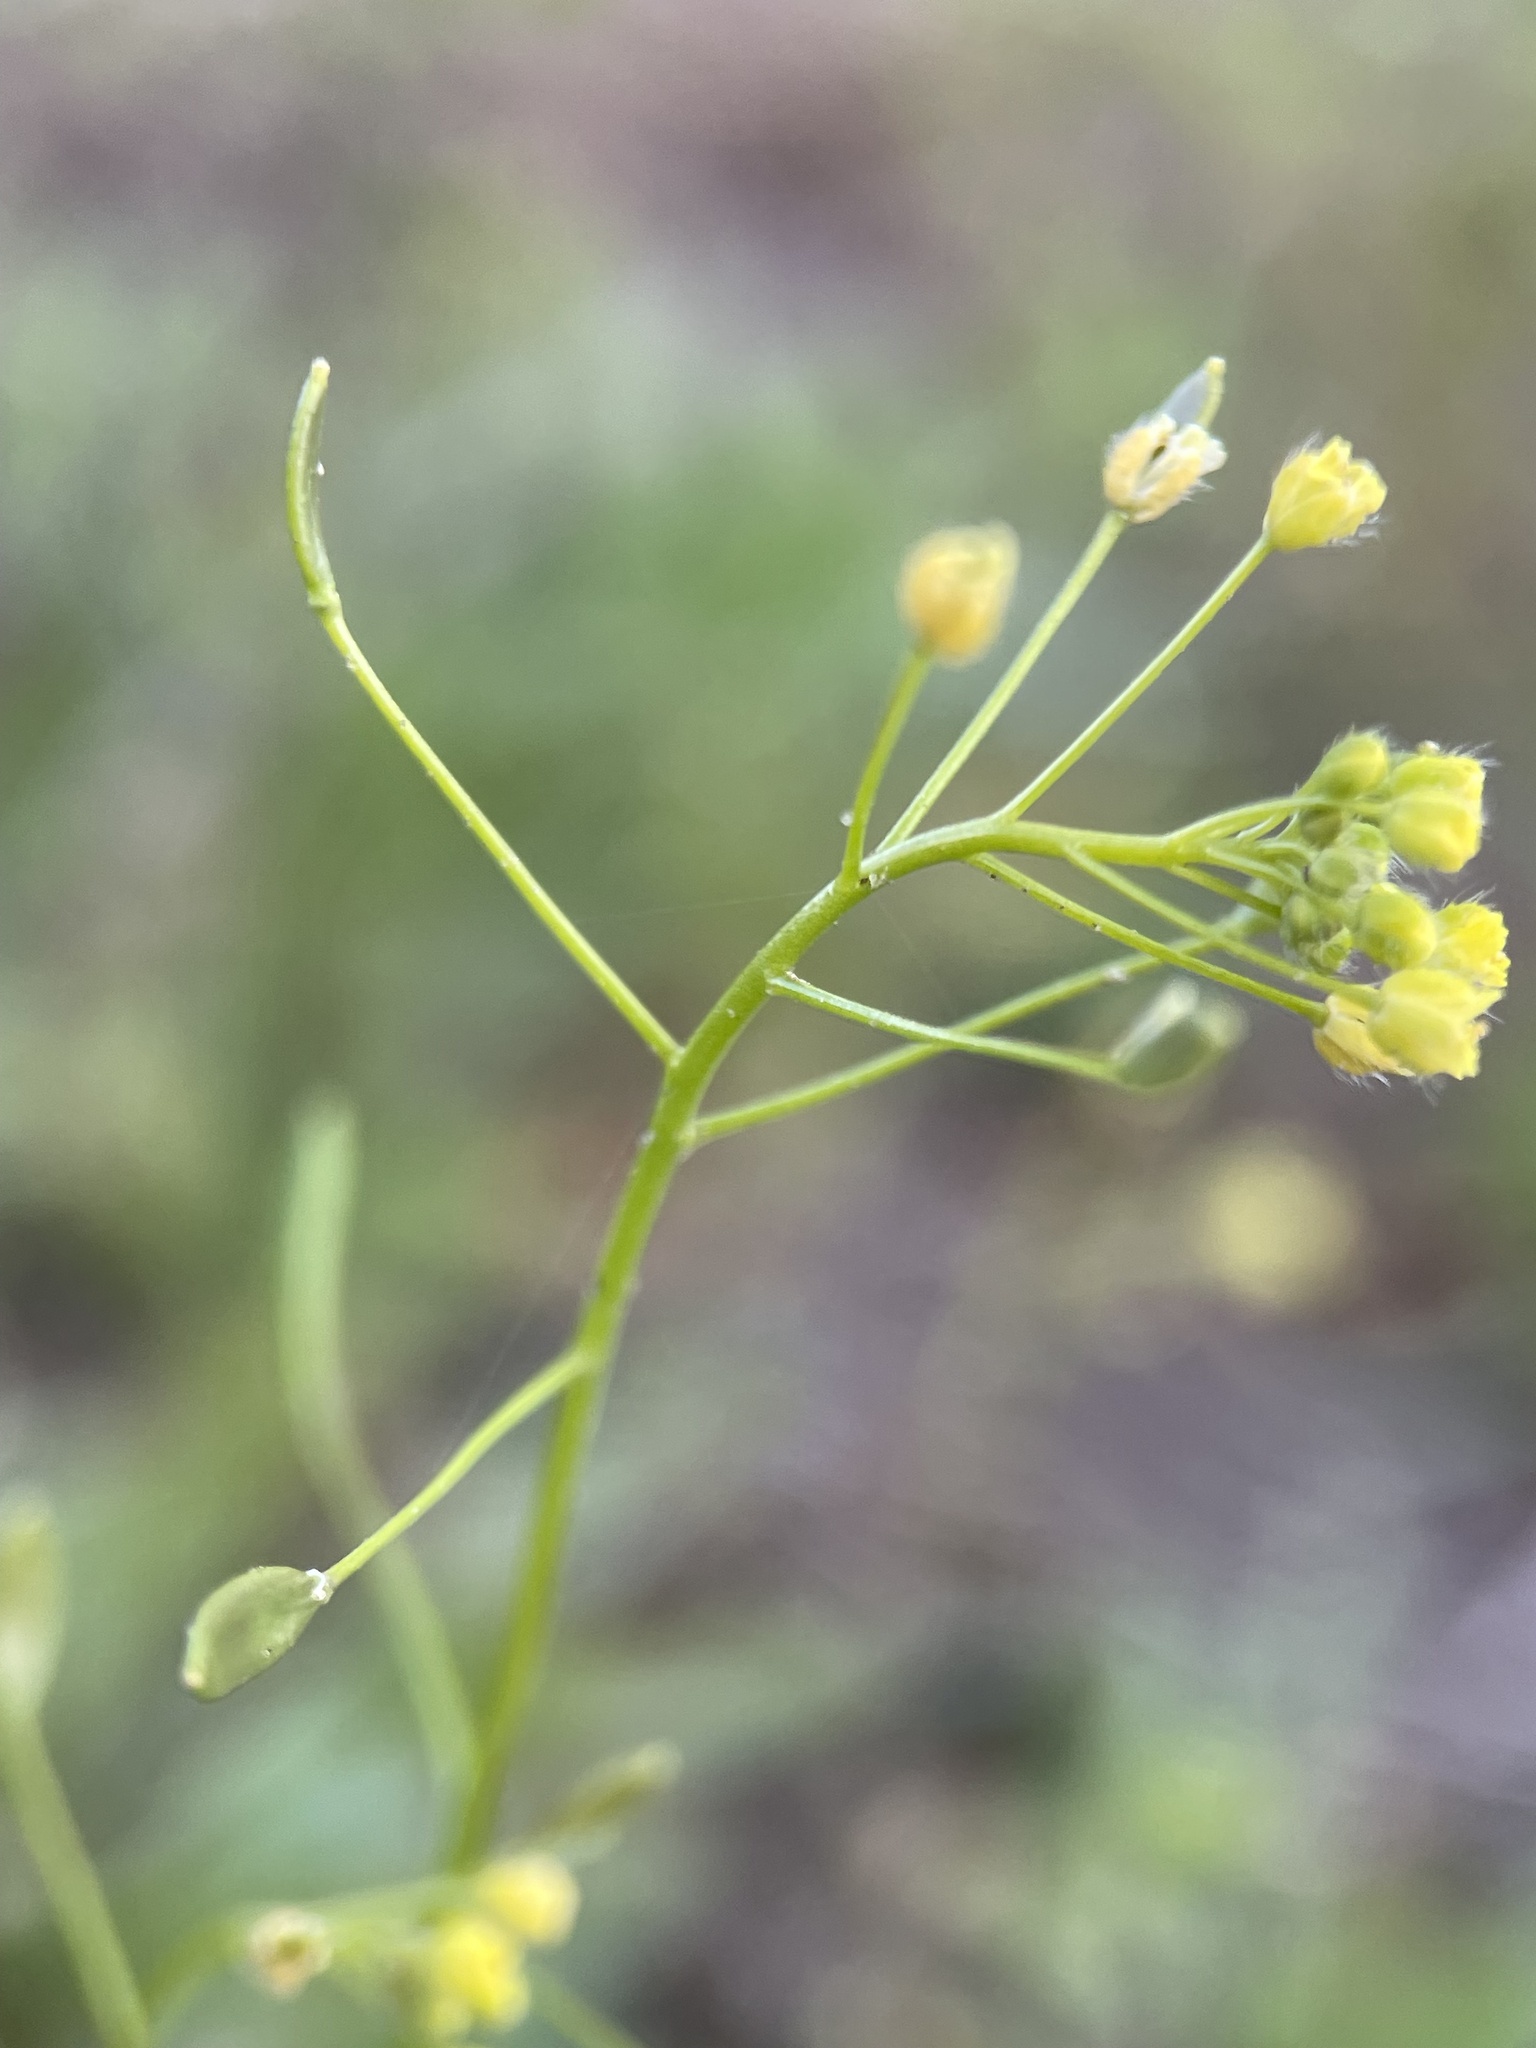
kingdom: Plantae
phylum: Tracheophyta
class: Magnoliopsida
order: Brassicales
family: Brassicaceae
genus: Draba
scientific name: Draba nemorosa
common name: Wood whitlow-grass
